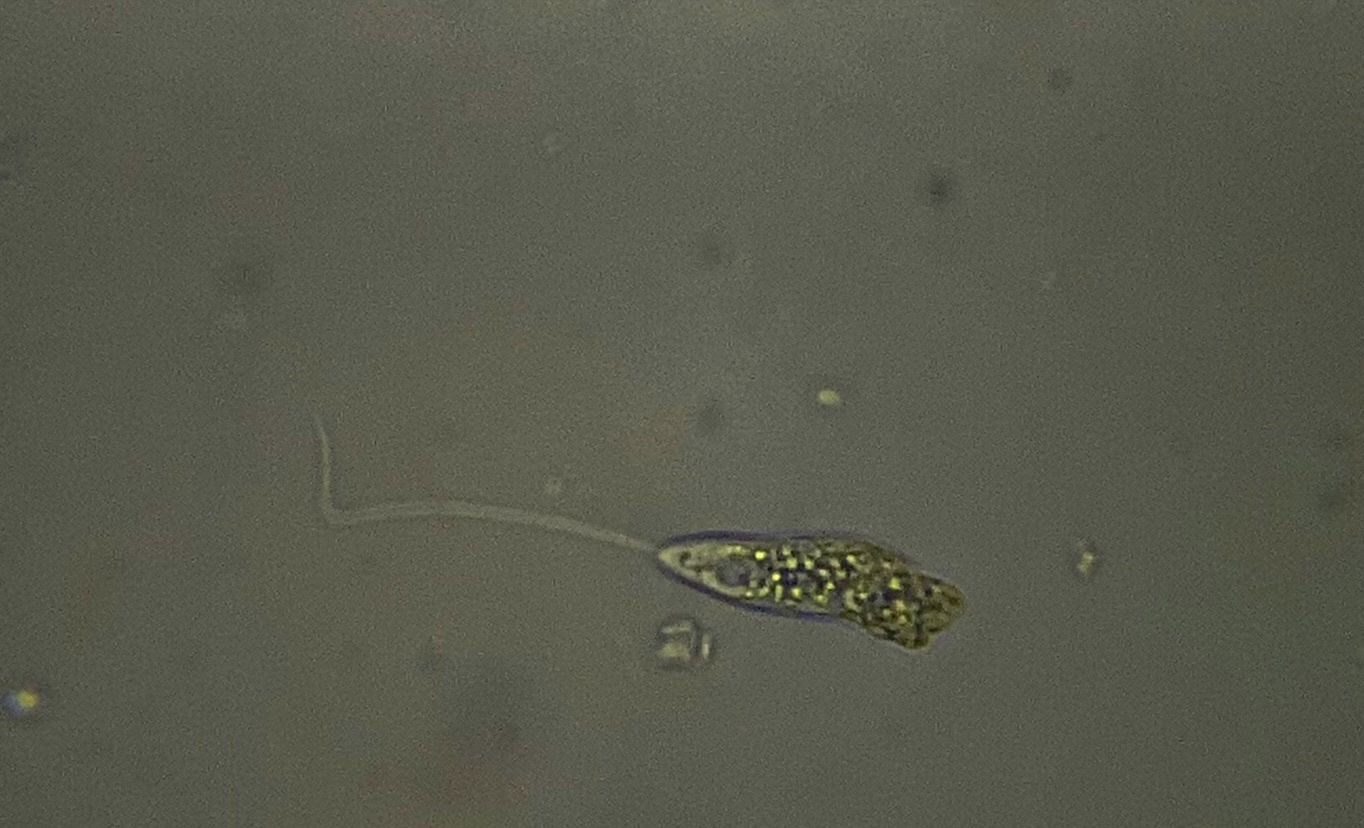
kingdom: Protozoa
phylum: Euglenozoa
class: Euglenoidea
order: Peranemida
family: Peranemidae
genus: Peranema
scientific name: Peranema Pseudoperanema trichophorum
